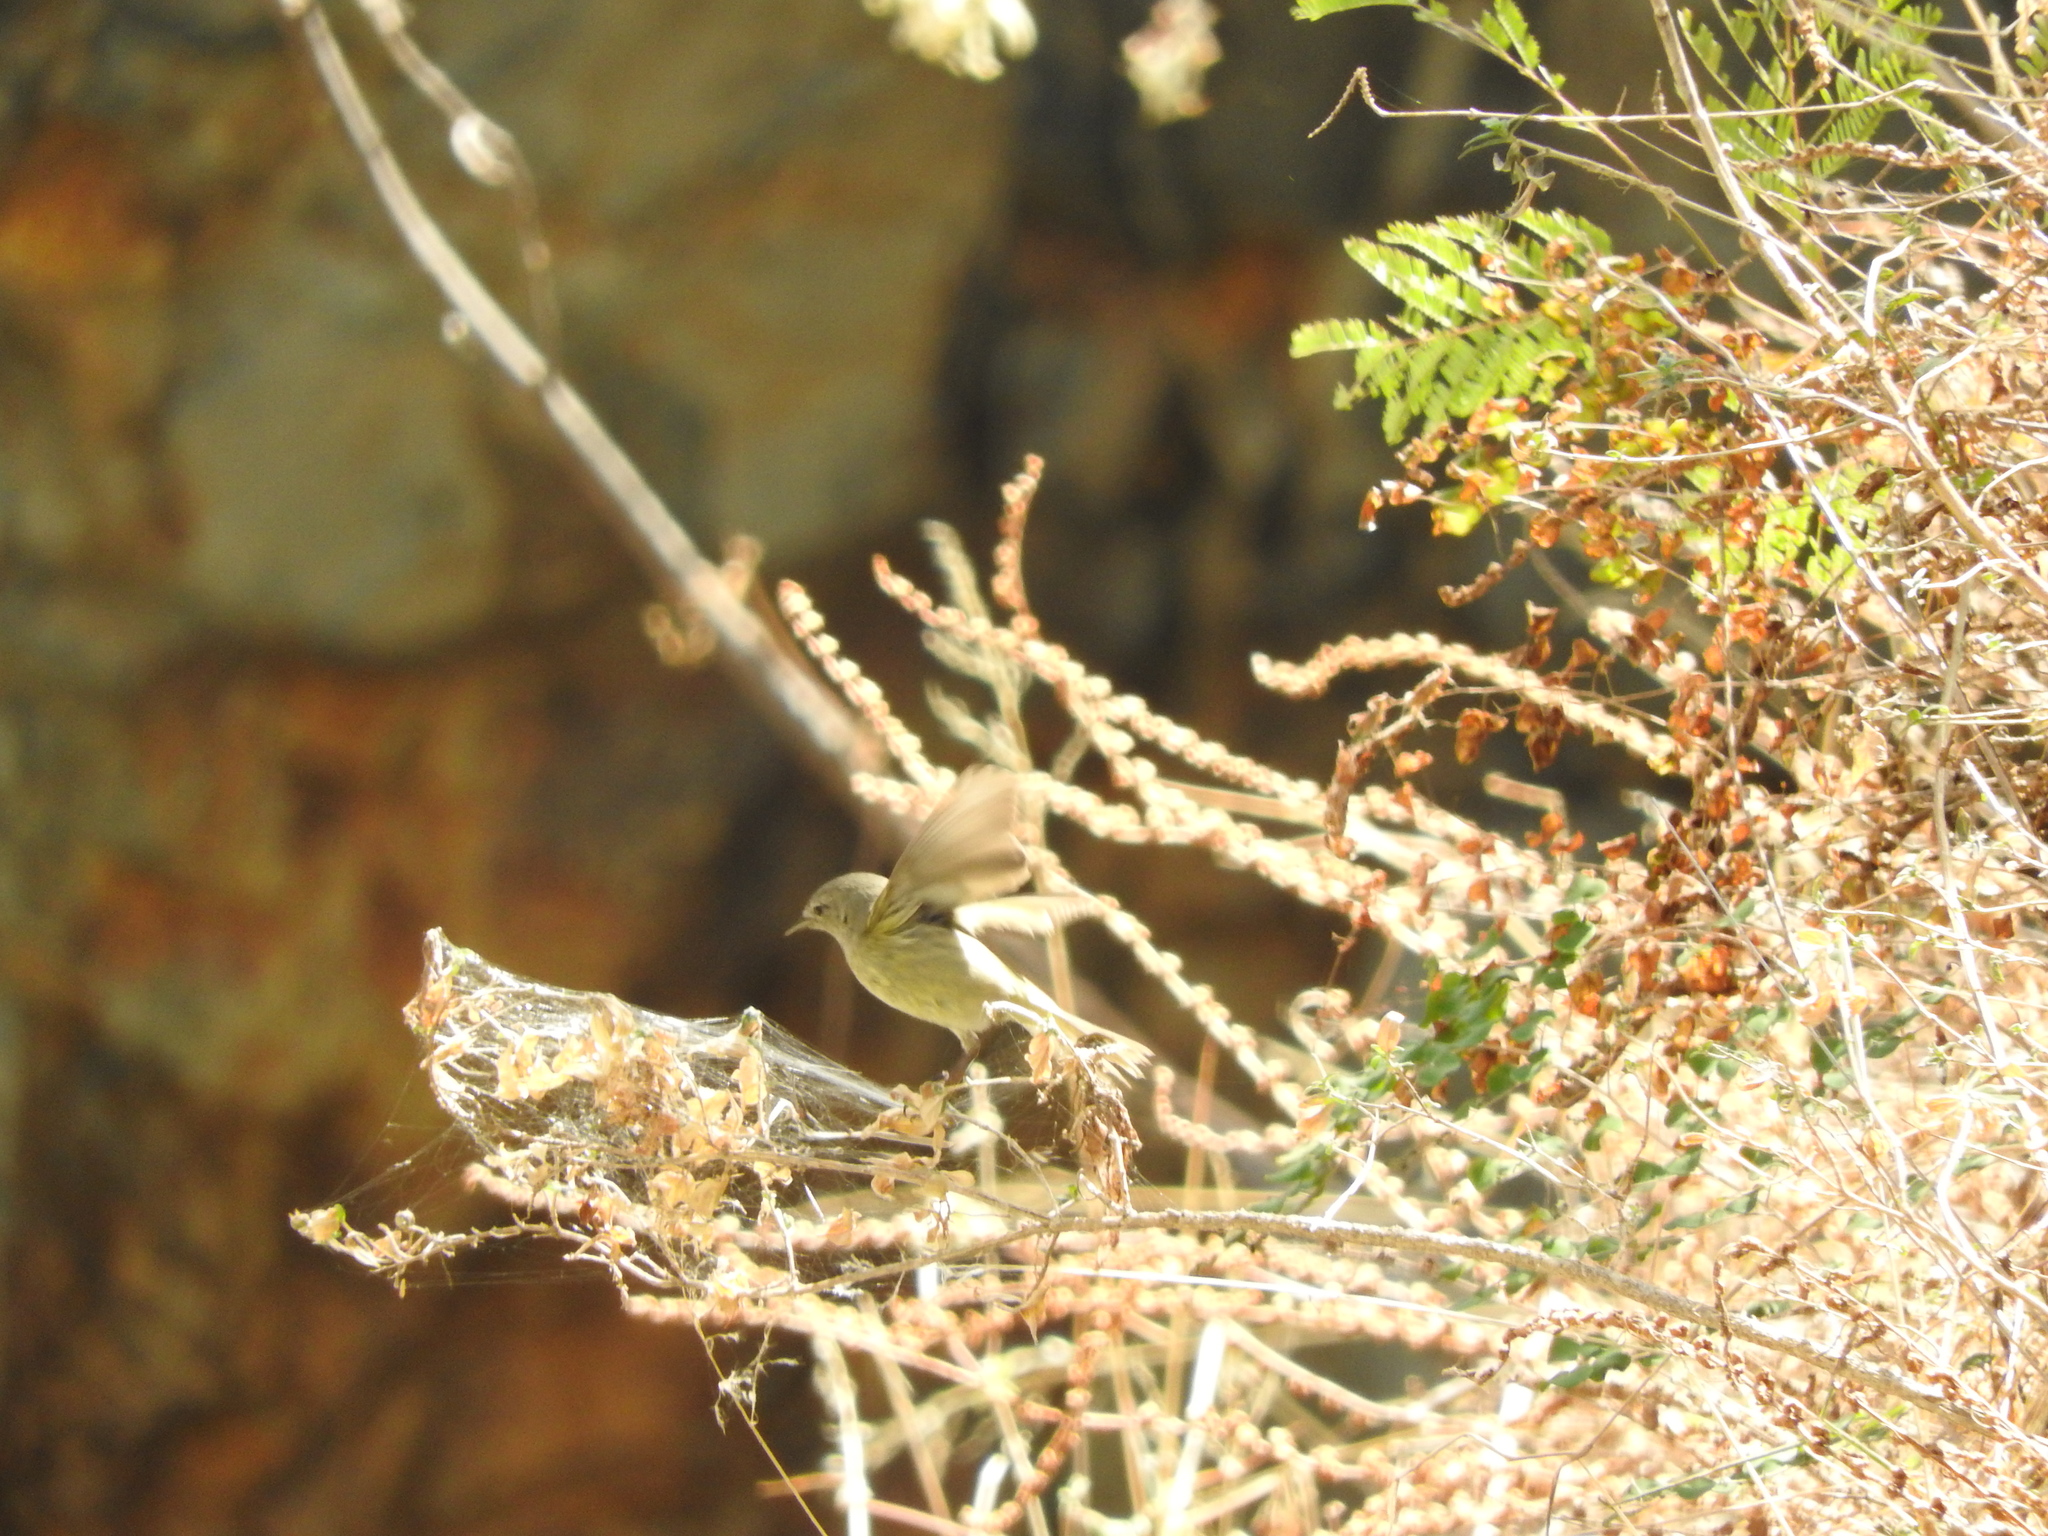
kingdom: Animalia
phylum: Chordata
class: Aves
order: Passeriformes
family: Parulidae
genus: Leiothlypis
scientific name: Leiothlypis celata
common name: Orange-crowned warbler
